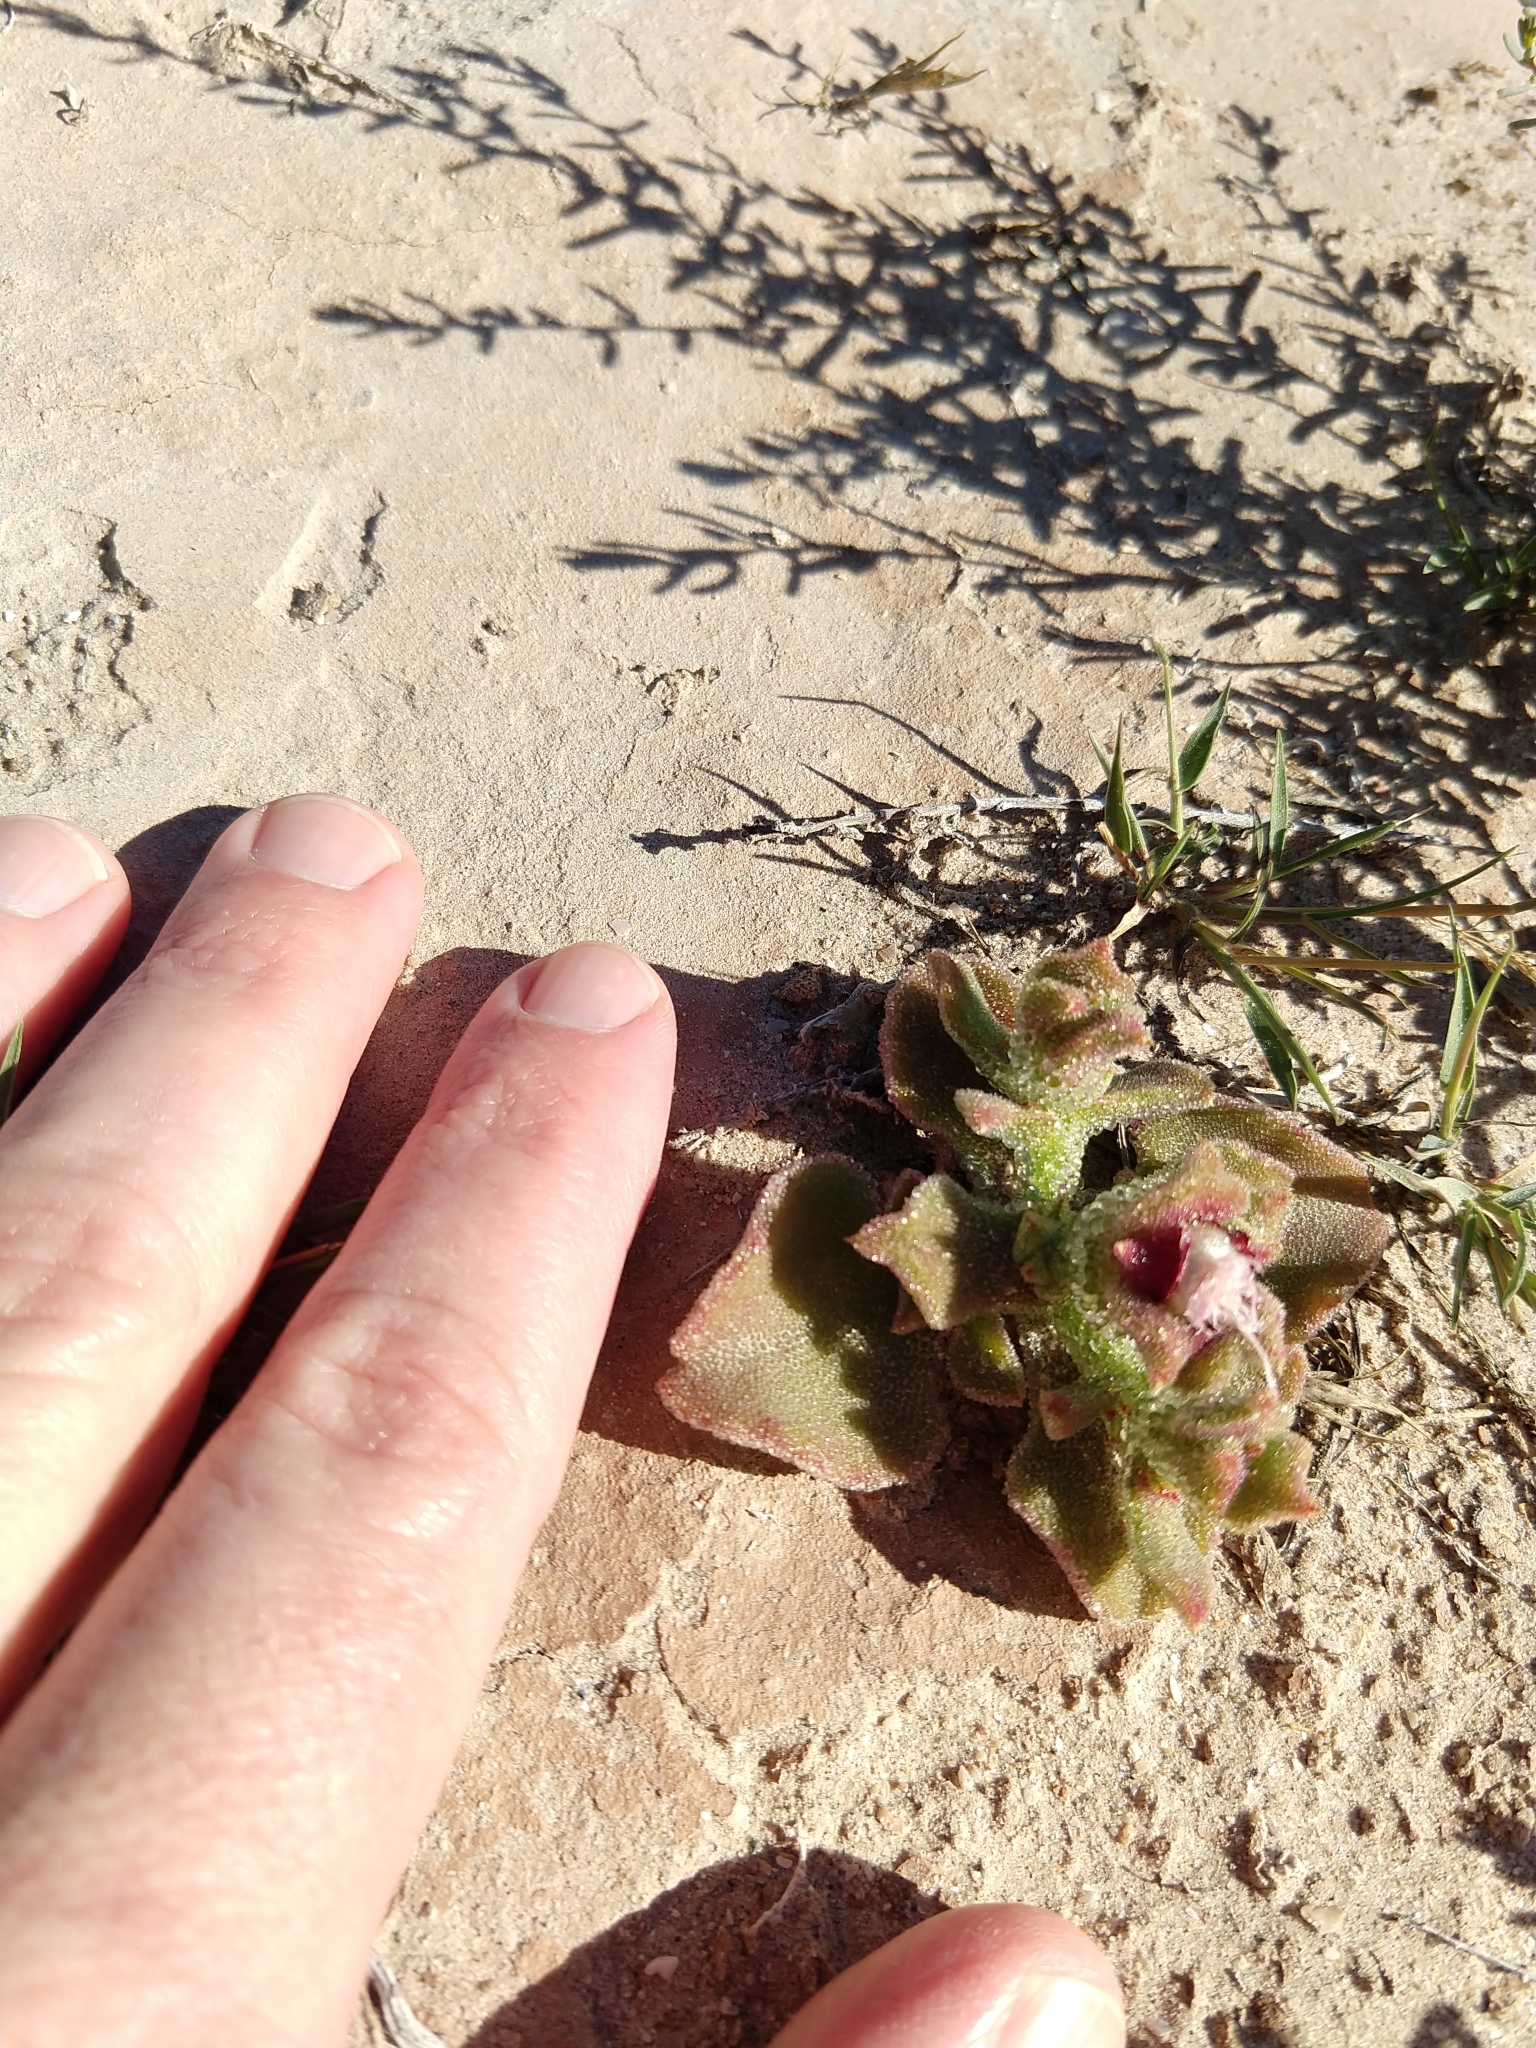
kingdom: Plantae
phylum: Tracheophyta
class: Magnoliopsida
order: Caryophyllales
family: Aizoaceae
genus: Mesembryanthemum
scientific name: Mesembryanthemum crystallinum
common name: Common iceplant
